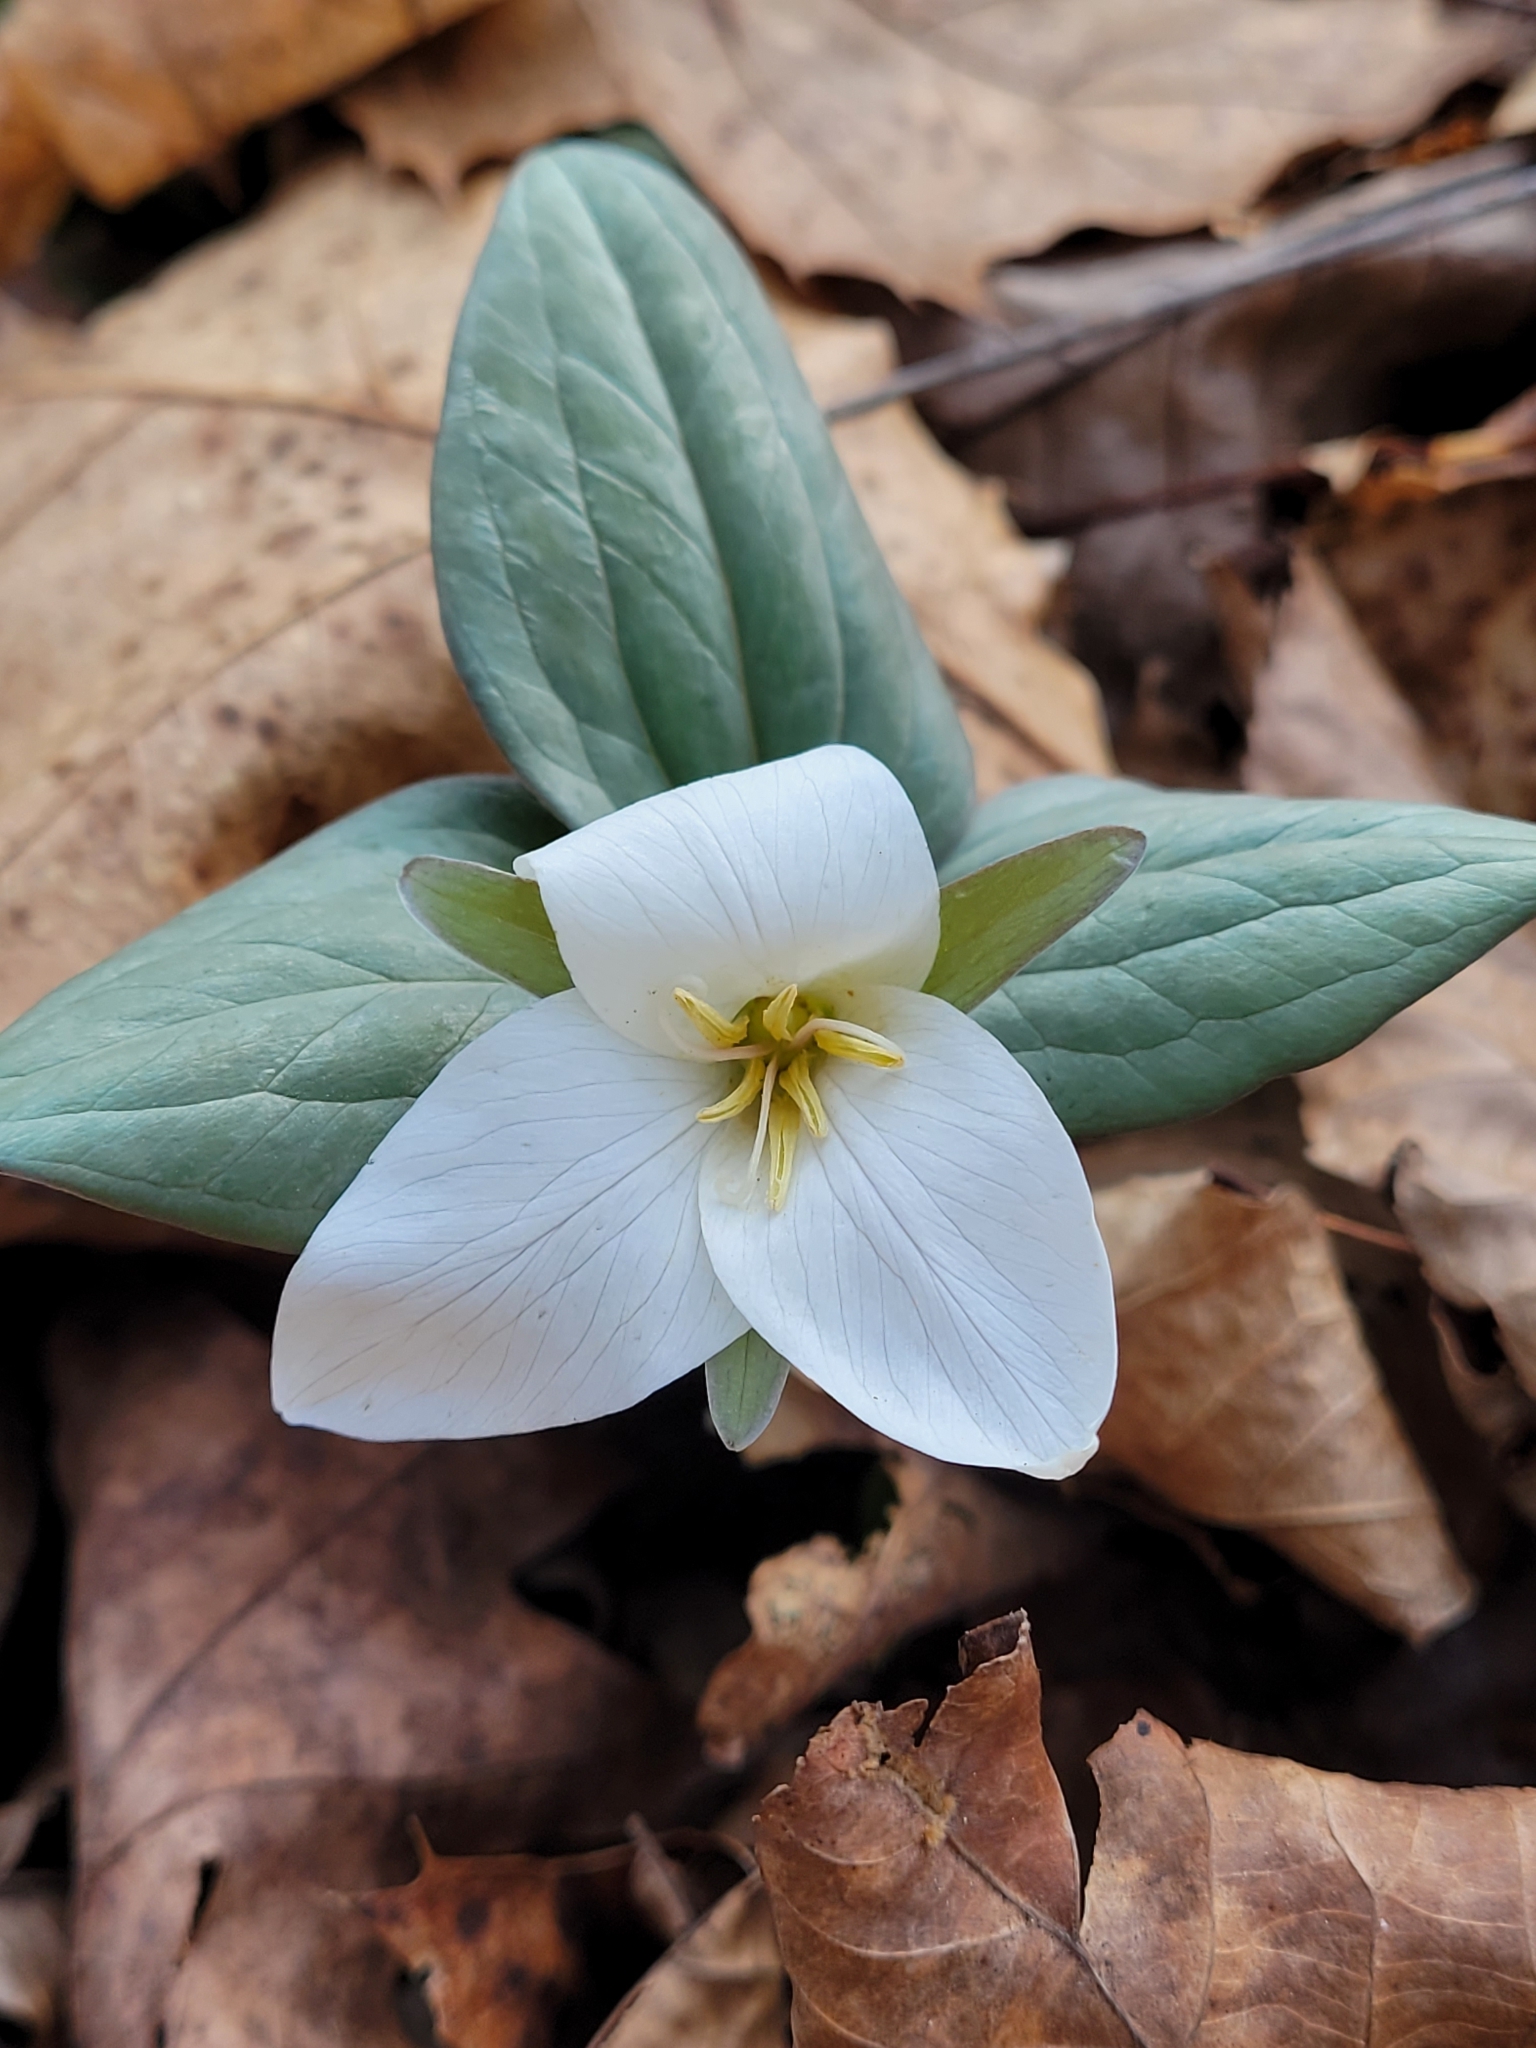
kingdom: Plantae
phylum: Tracheophyta
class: Liliopsida
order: Liliales
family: Melanthiaceae
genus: Trillium
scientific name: Trillium nivale
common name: Dwarf white trillium
